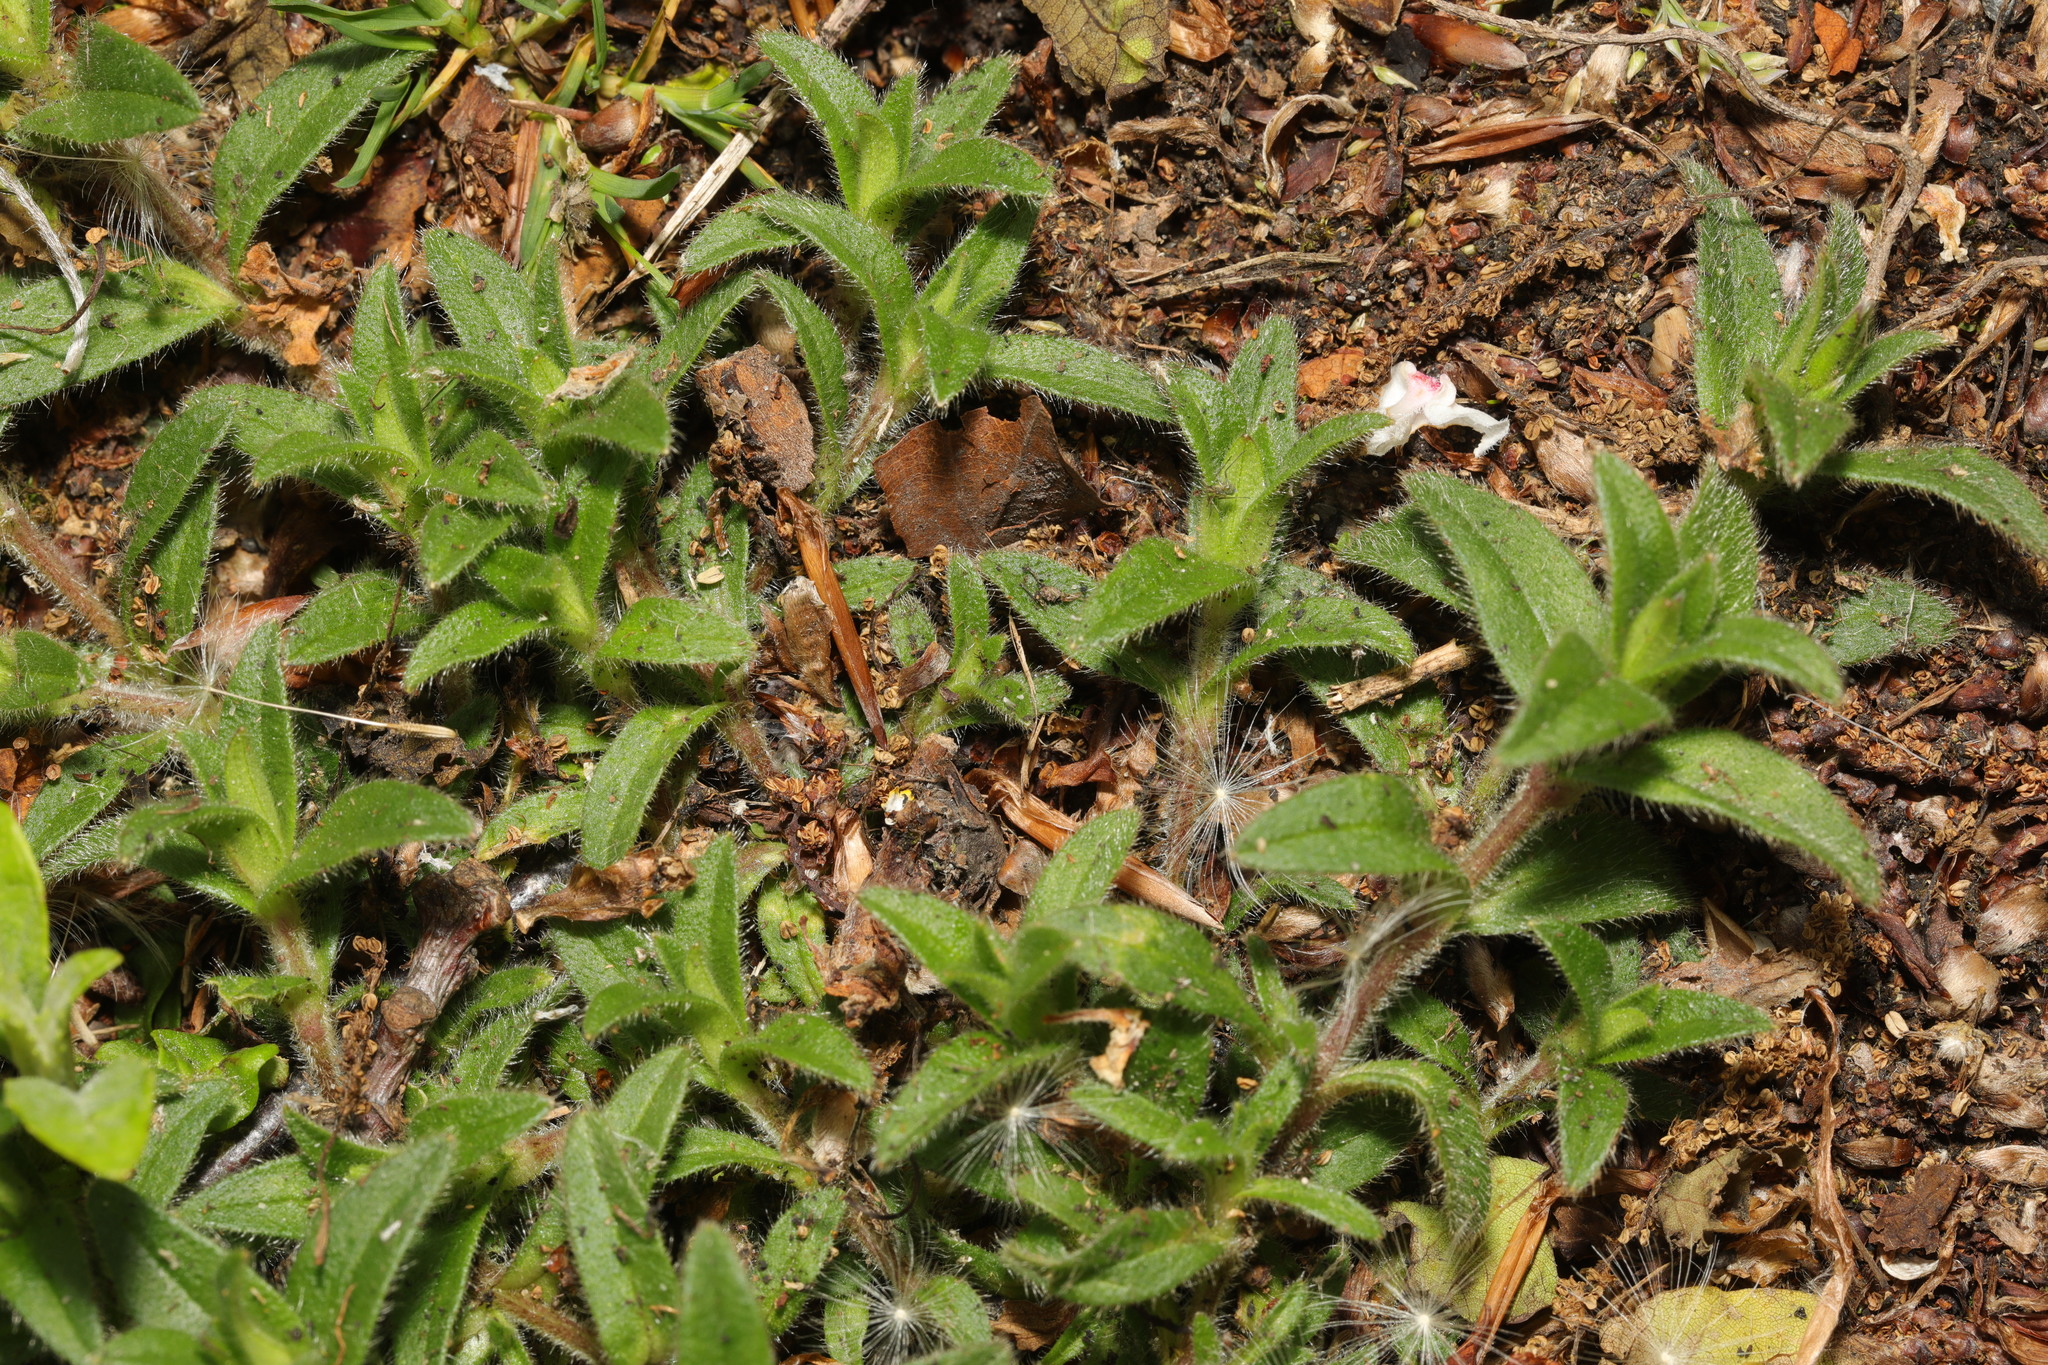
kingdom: Plantae
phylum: Tracheophyta
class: Magnoliopsida
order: Caryophyllales
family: Caryophyllaceae
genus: Cerastium
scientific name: Cerastium fontanum
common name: Common mouse-ear
